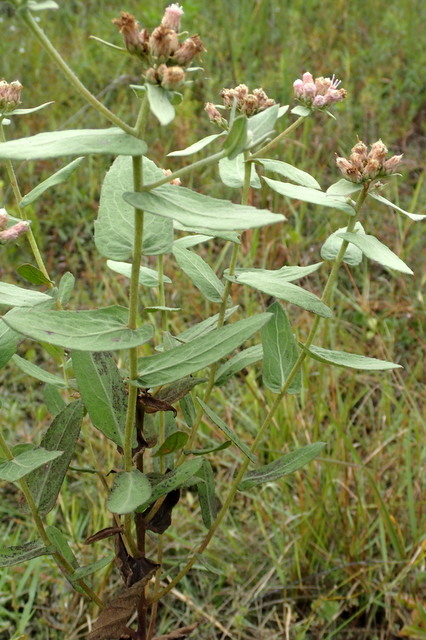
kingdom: Plantae
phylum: Tracheophyta
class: Magnoliopsida
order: Asterales
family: Asteraceae
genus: Pluchea
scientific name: Pluchea baccharis
